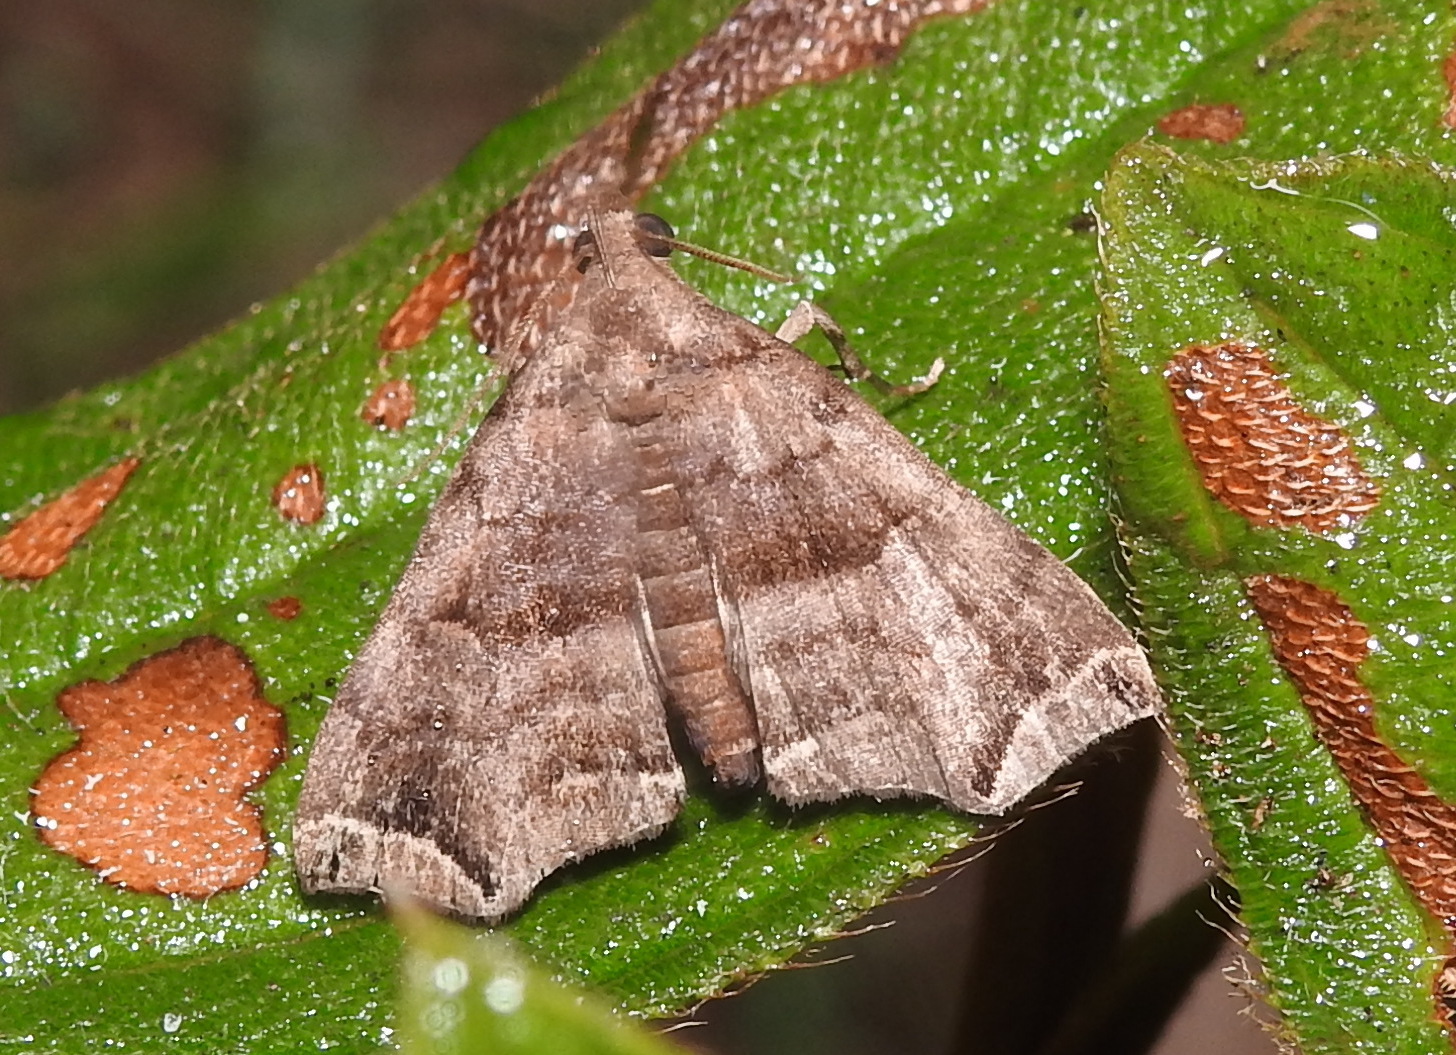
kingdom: Animalia
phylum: Arthropoda
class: Insecta
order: Lepidoptera
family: Erebidae
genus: Polypogon
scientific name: Polypogon biasalis
